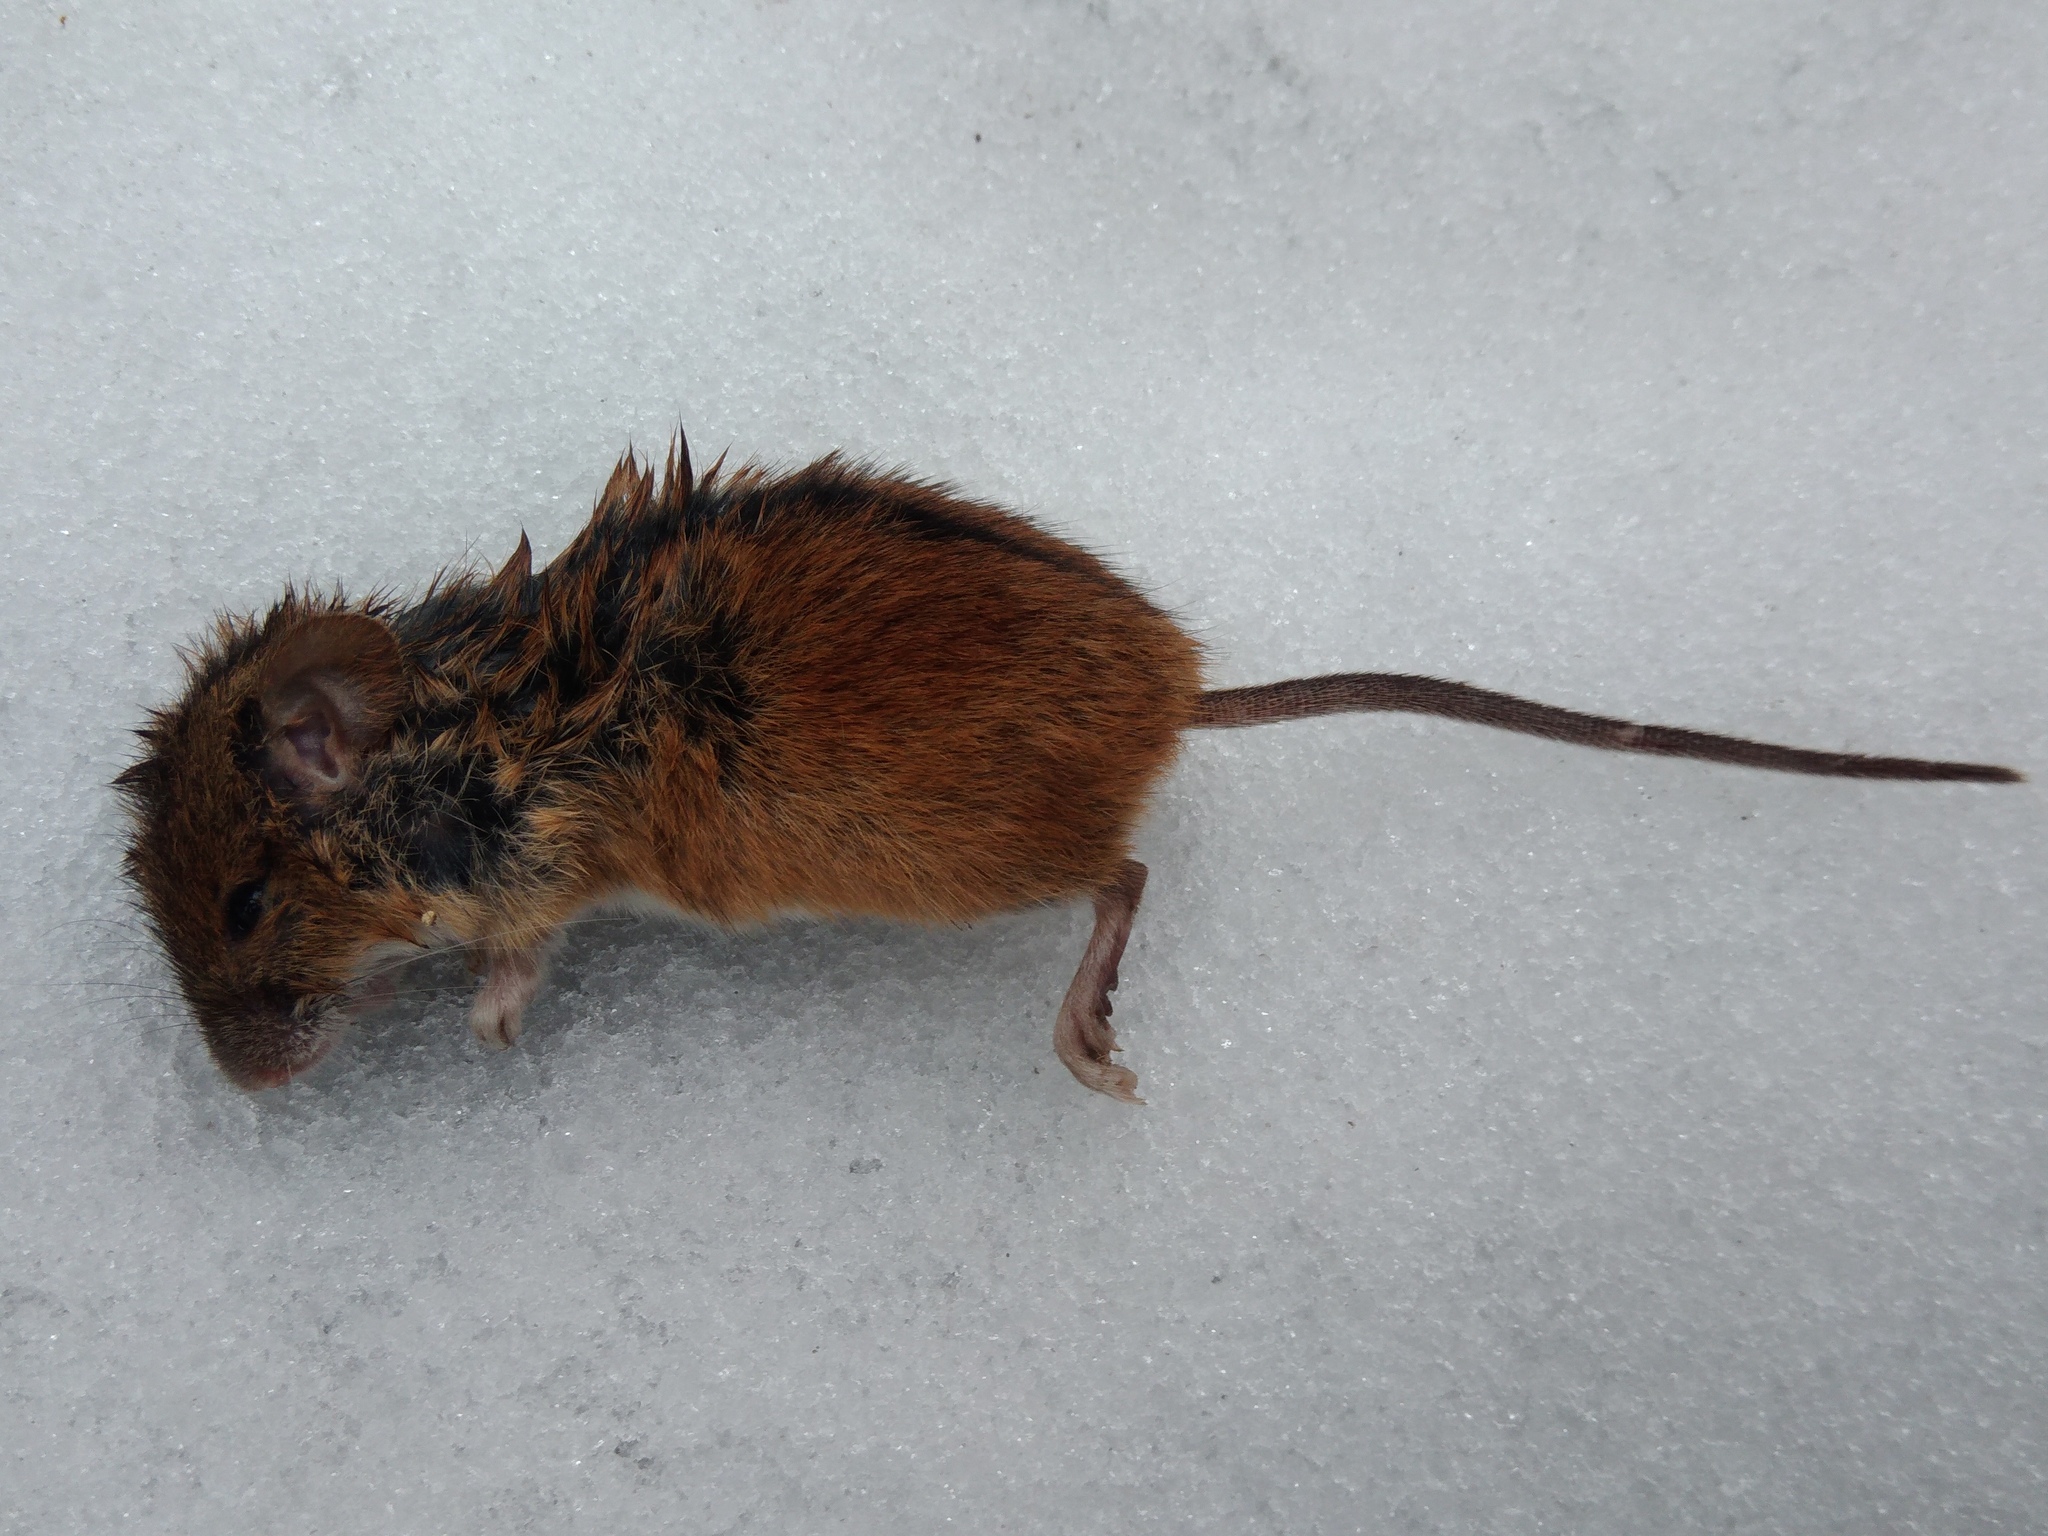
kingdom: Animalia
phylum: Chordata
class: Mammalia
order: Rodentia
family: Muridae
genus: Apodemus
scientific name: Apodemus agrarius
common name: Striped field mouse
